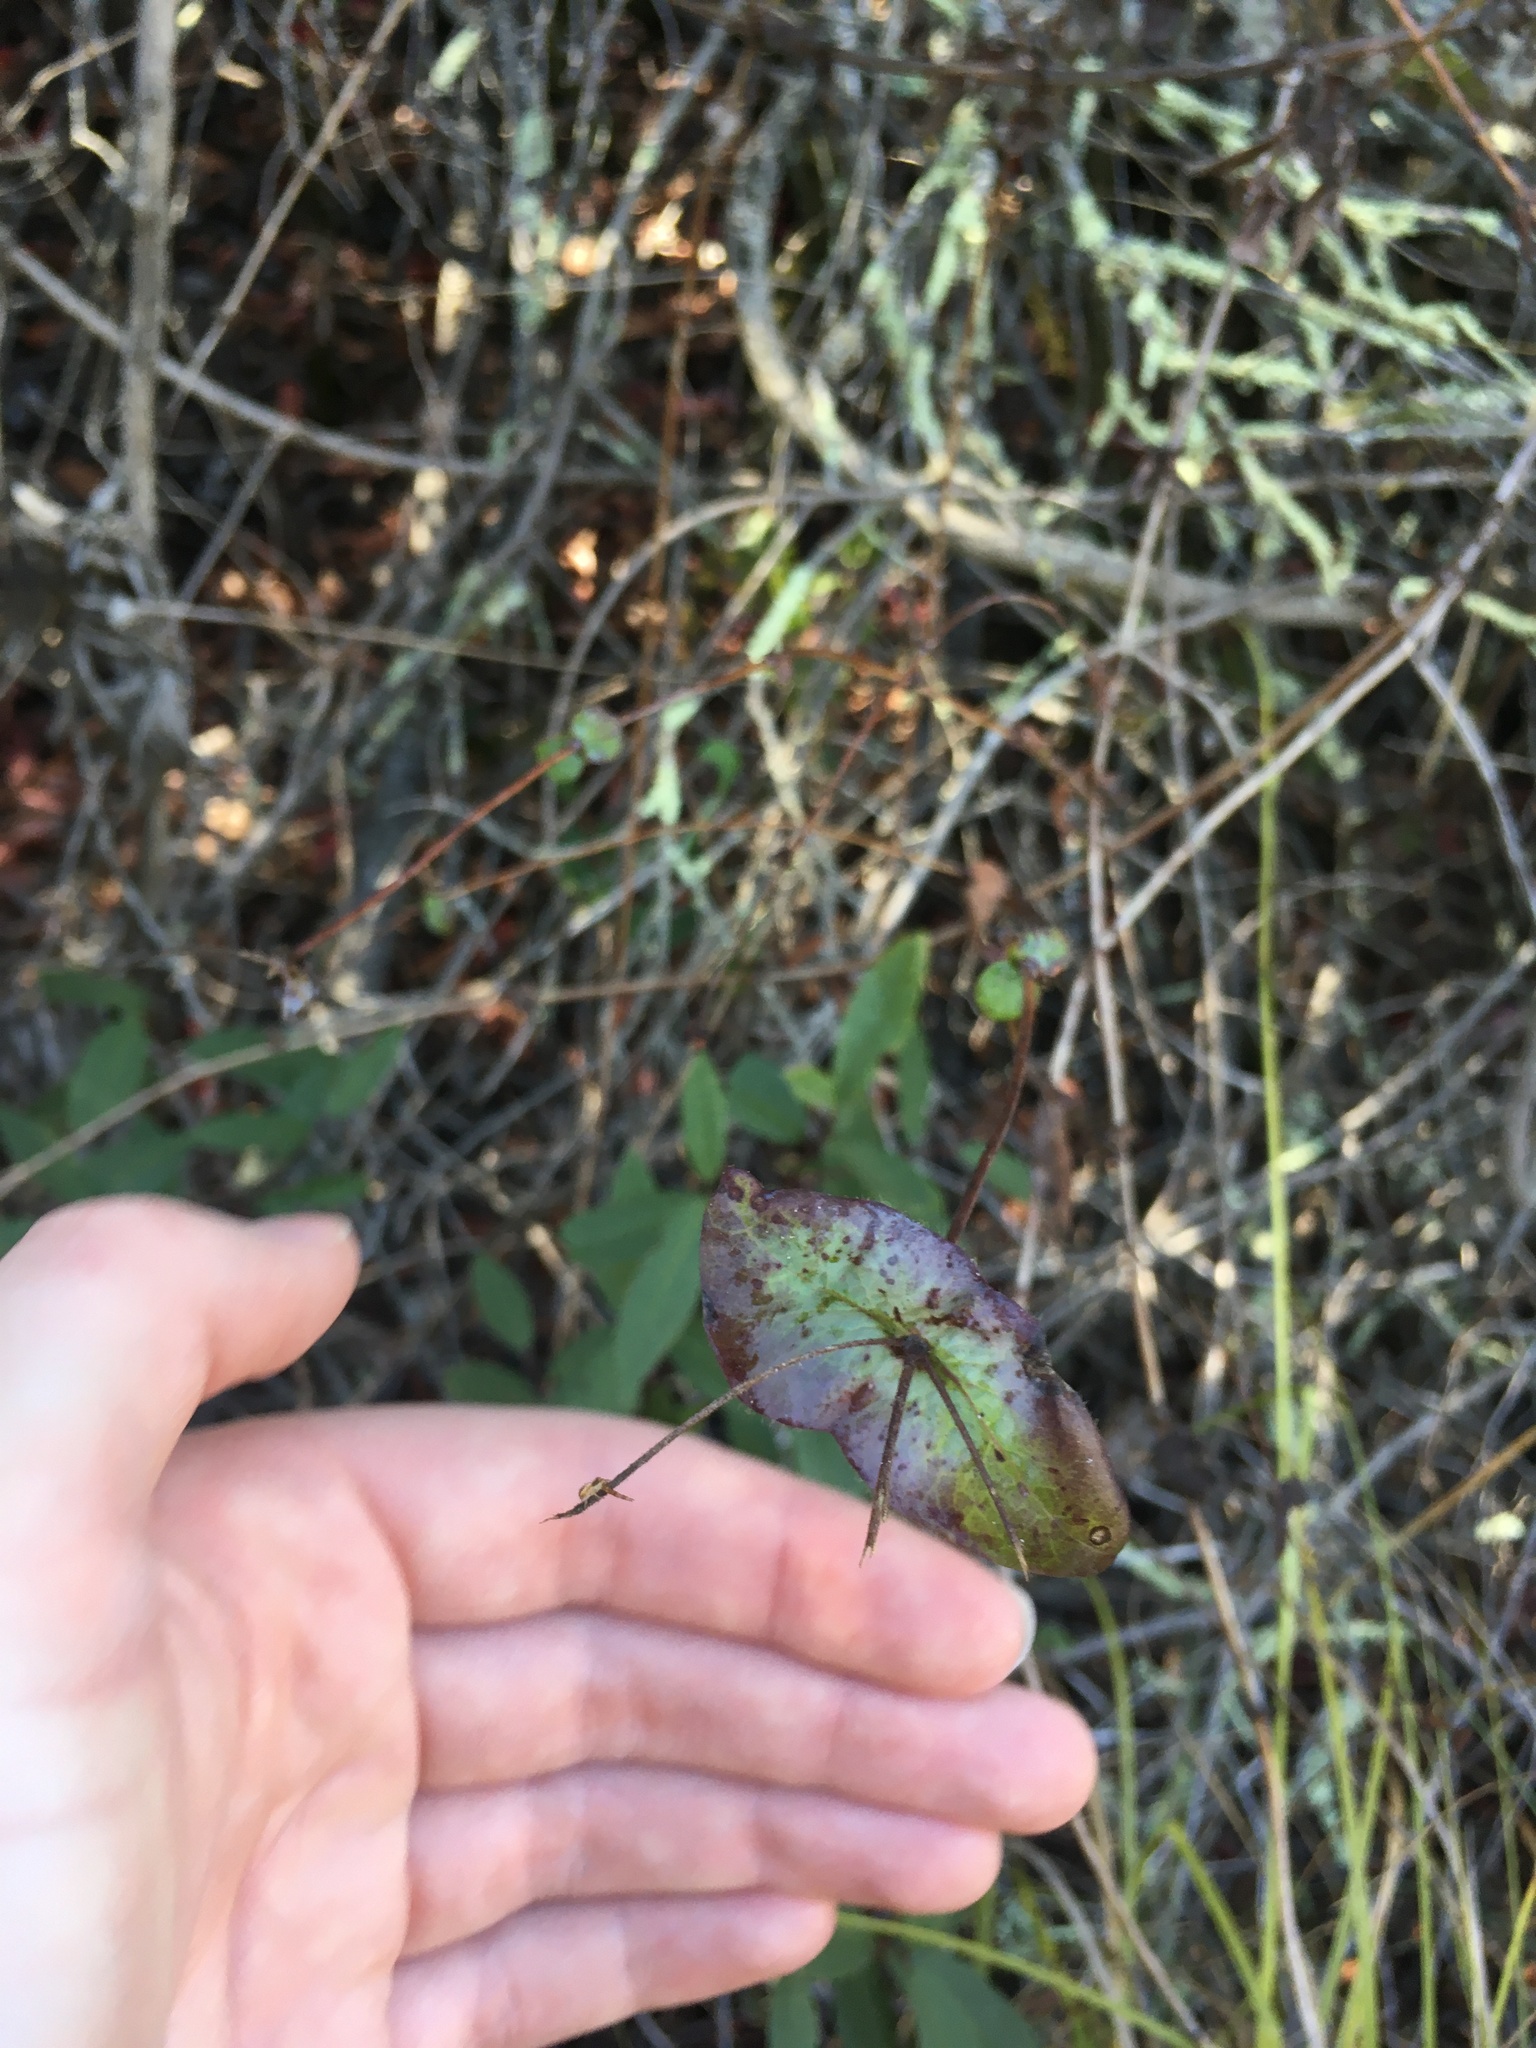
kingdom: Plantae
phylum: Tracheophyta
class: Magnoliopsida
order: Dipsacales
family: Caprifoliaceae
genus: Lonicera
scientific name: Lonicera hispidula
